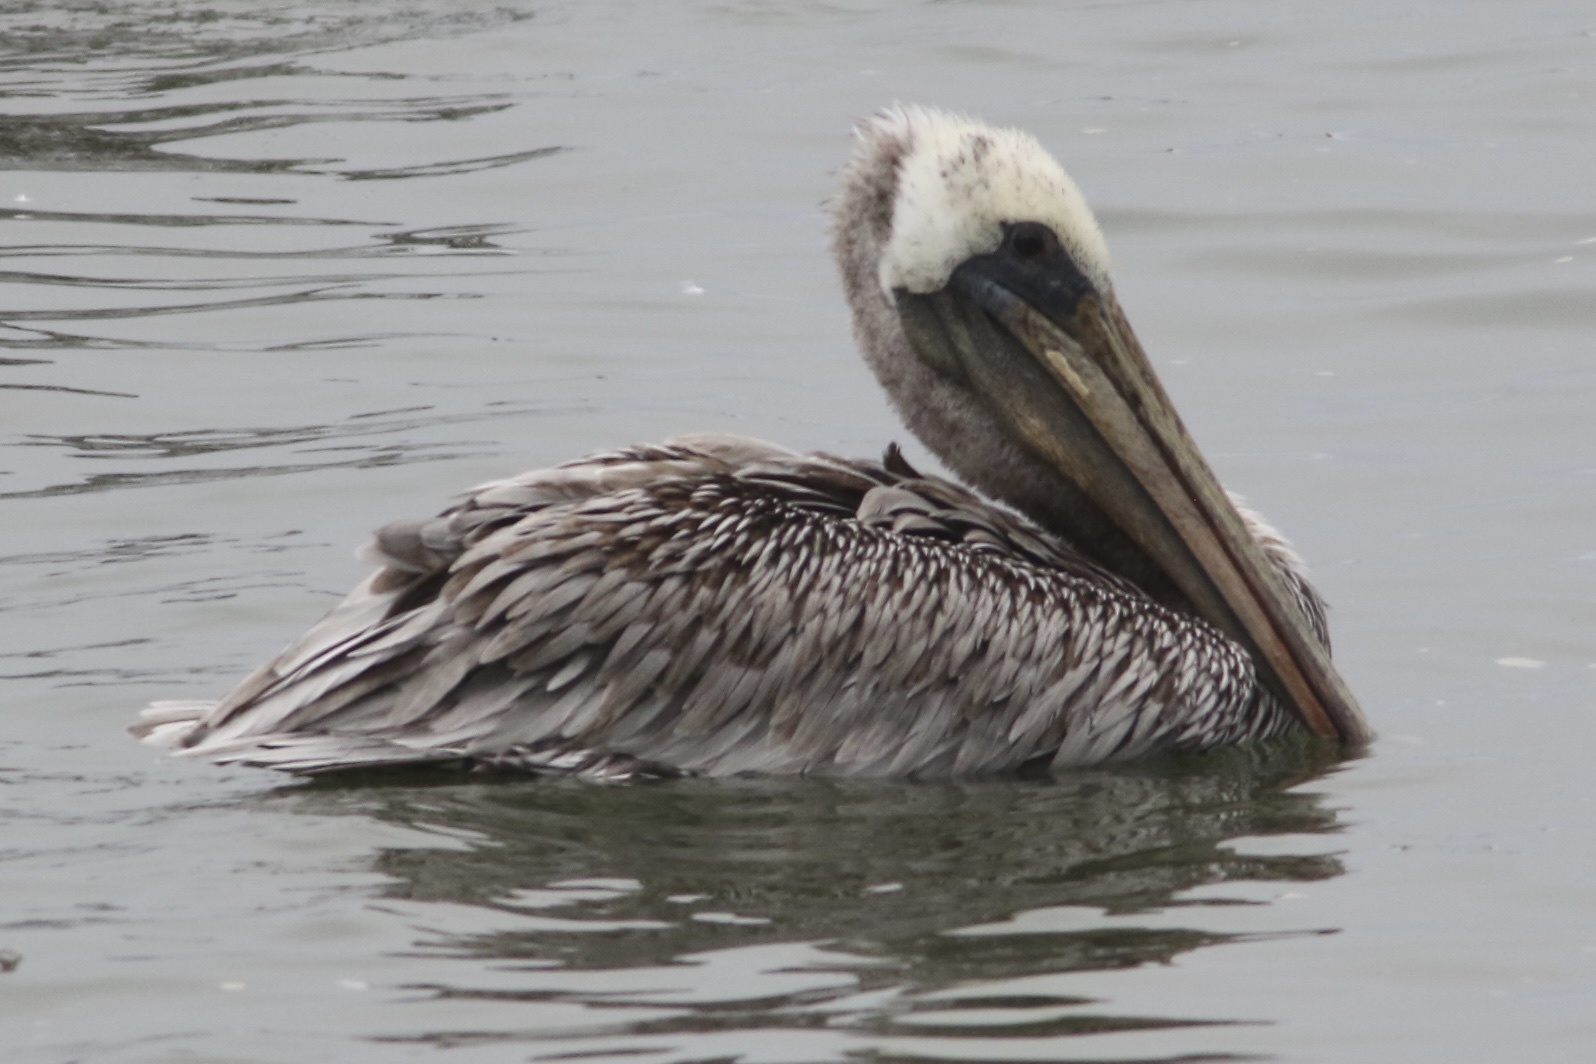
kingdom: Animalia
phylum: Chordata
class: Aves
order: Pelecaniformes
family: Pelecanidae
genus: Pelecanus
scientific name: Pelecanus occidentalis
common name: Brown pelican
